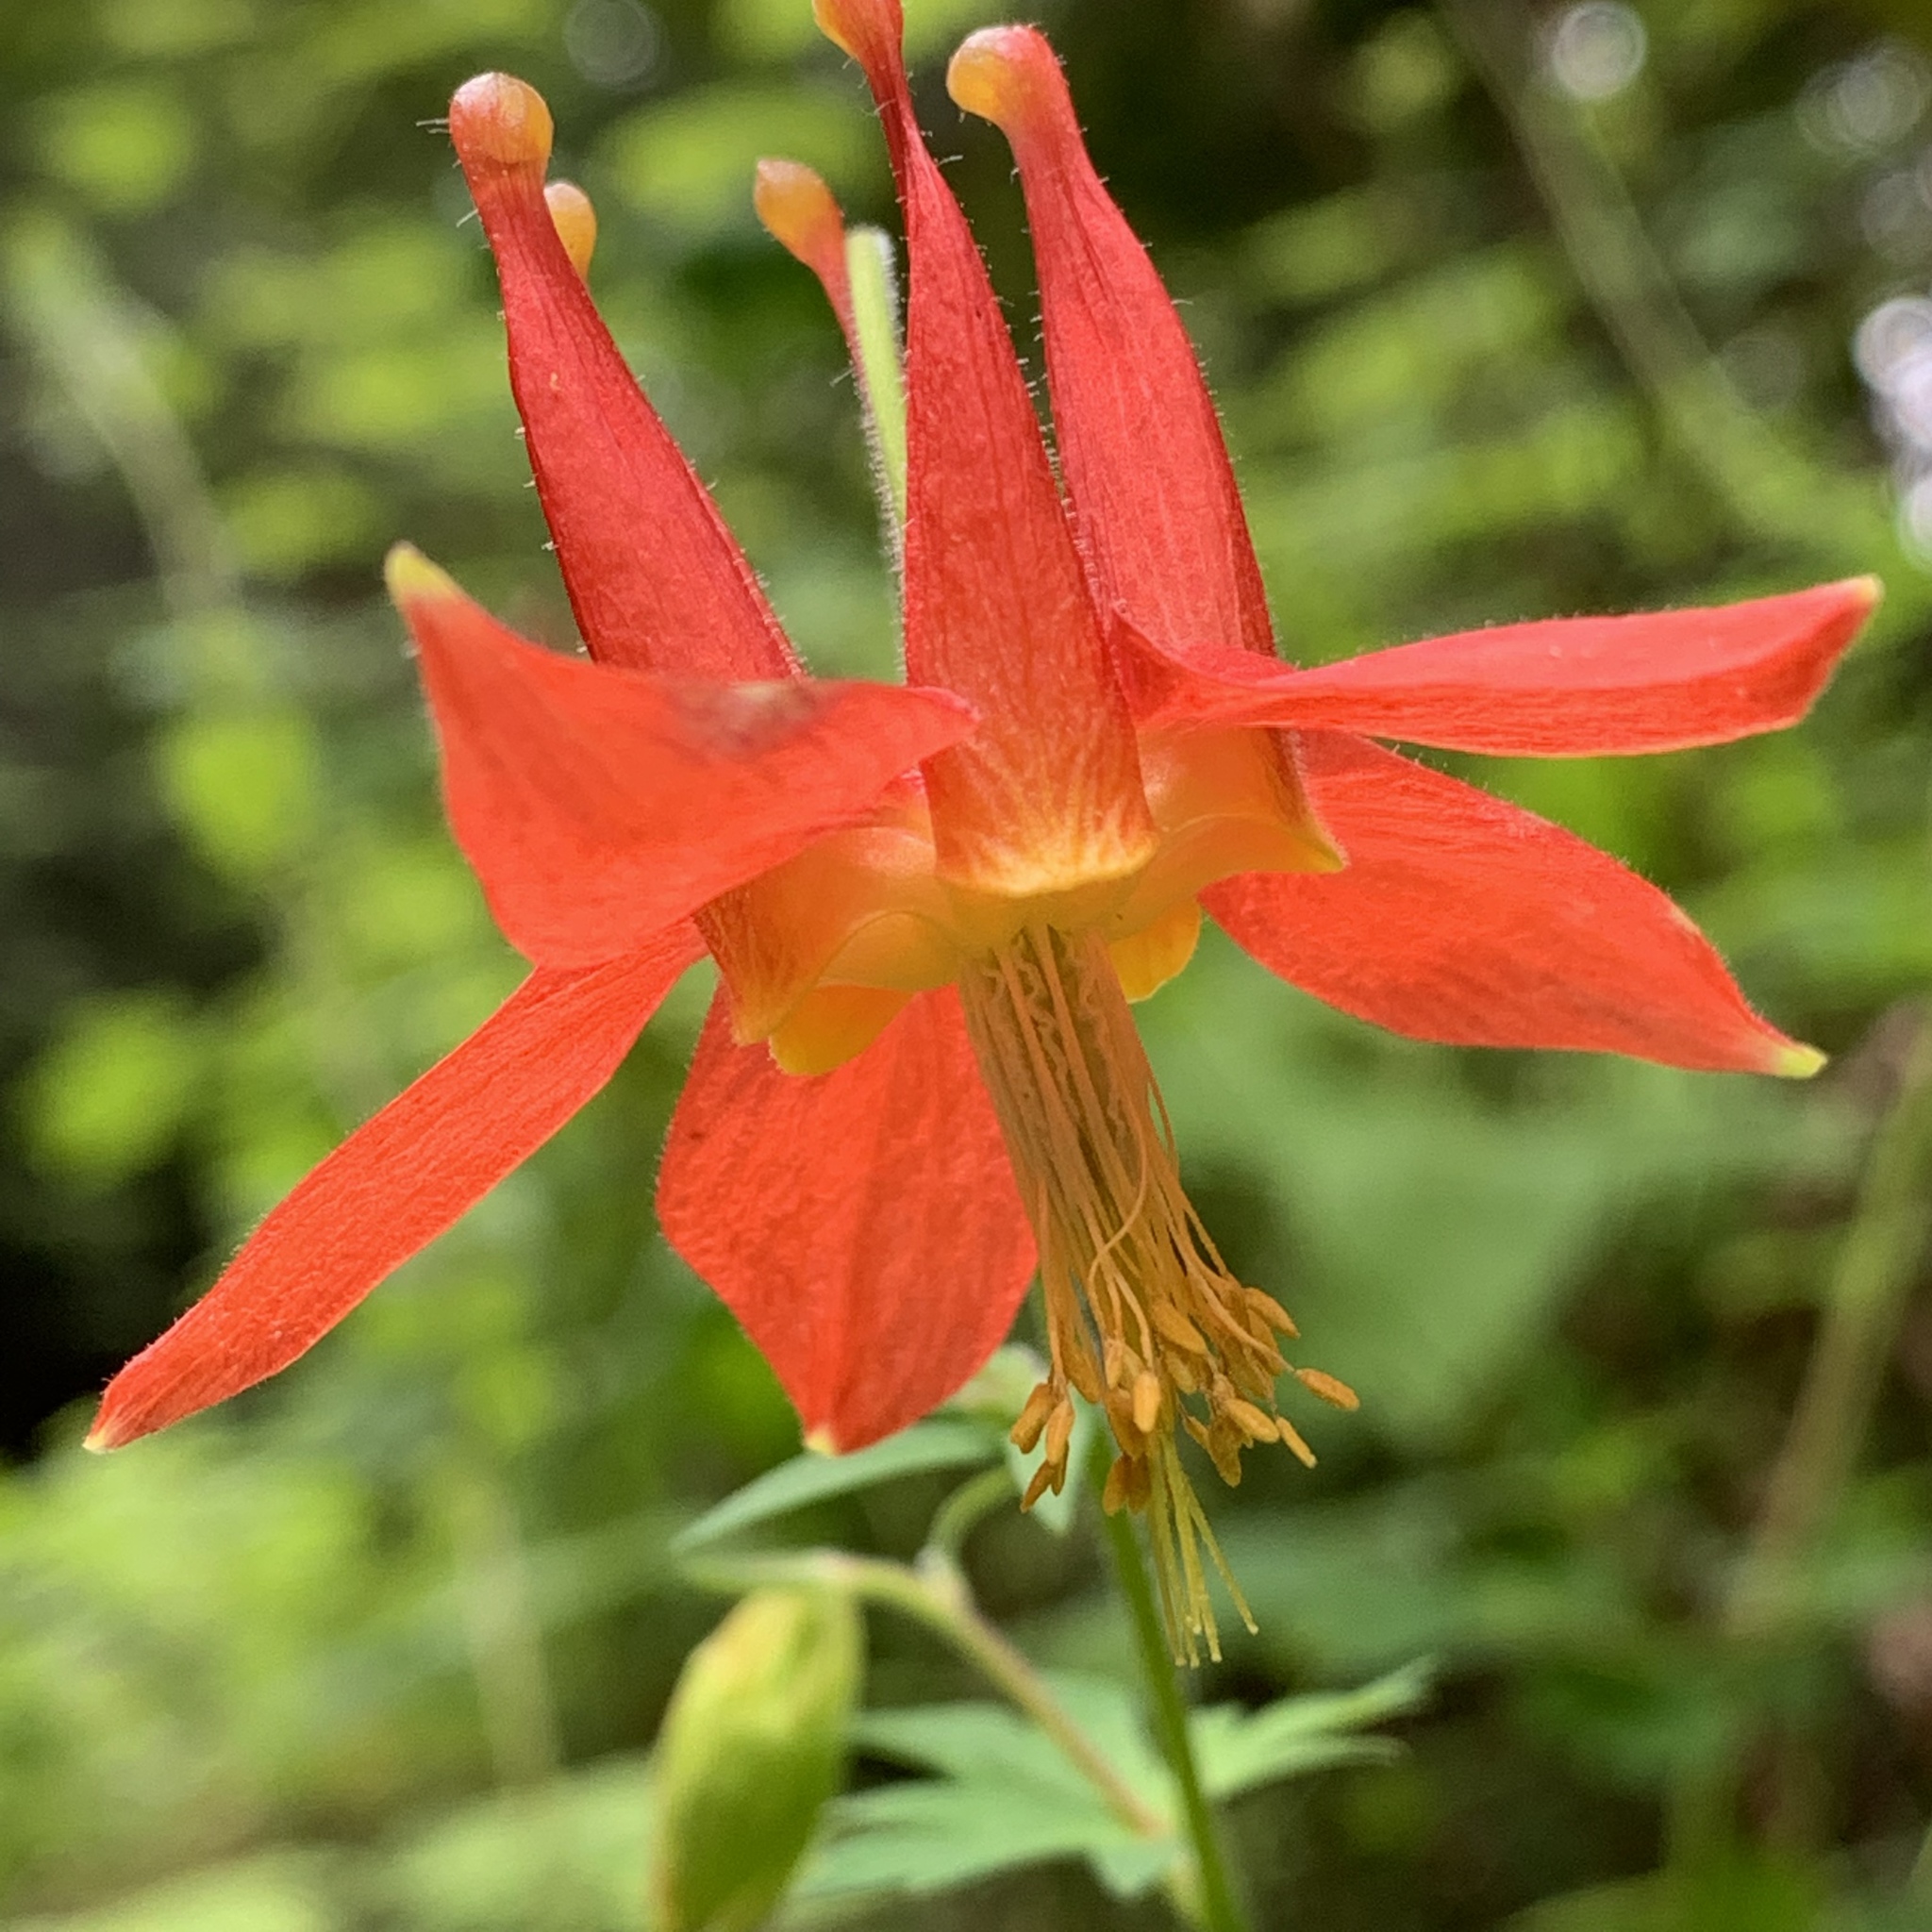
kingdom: Plantae
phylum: Tracheophyta
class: Magnoliopsida
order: Ranunculales
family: Ranunculaceae
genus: Aquilegia
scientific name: Aquilegia formosa
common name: Sitka columbine
